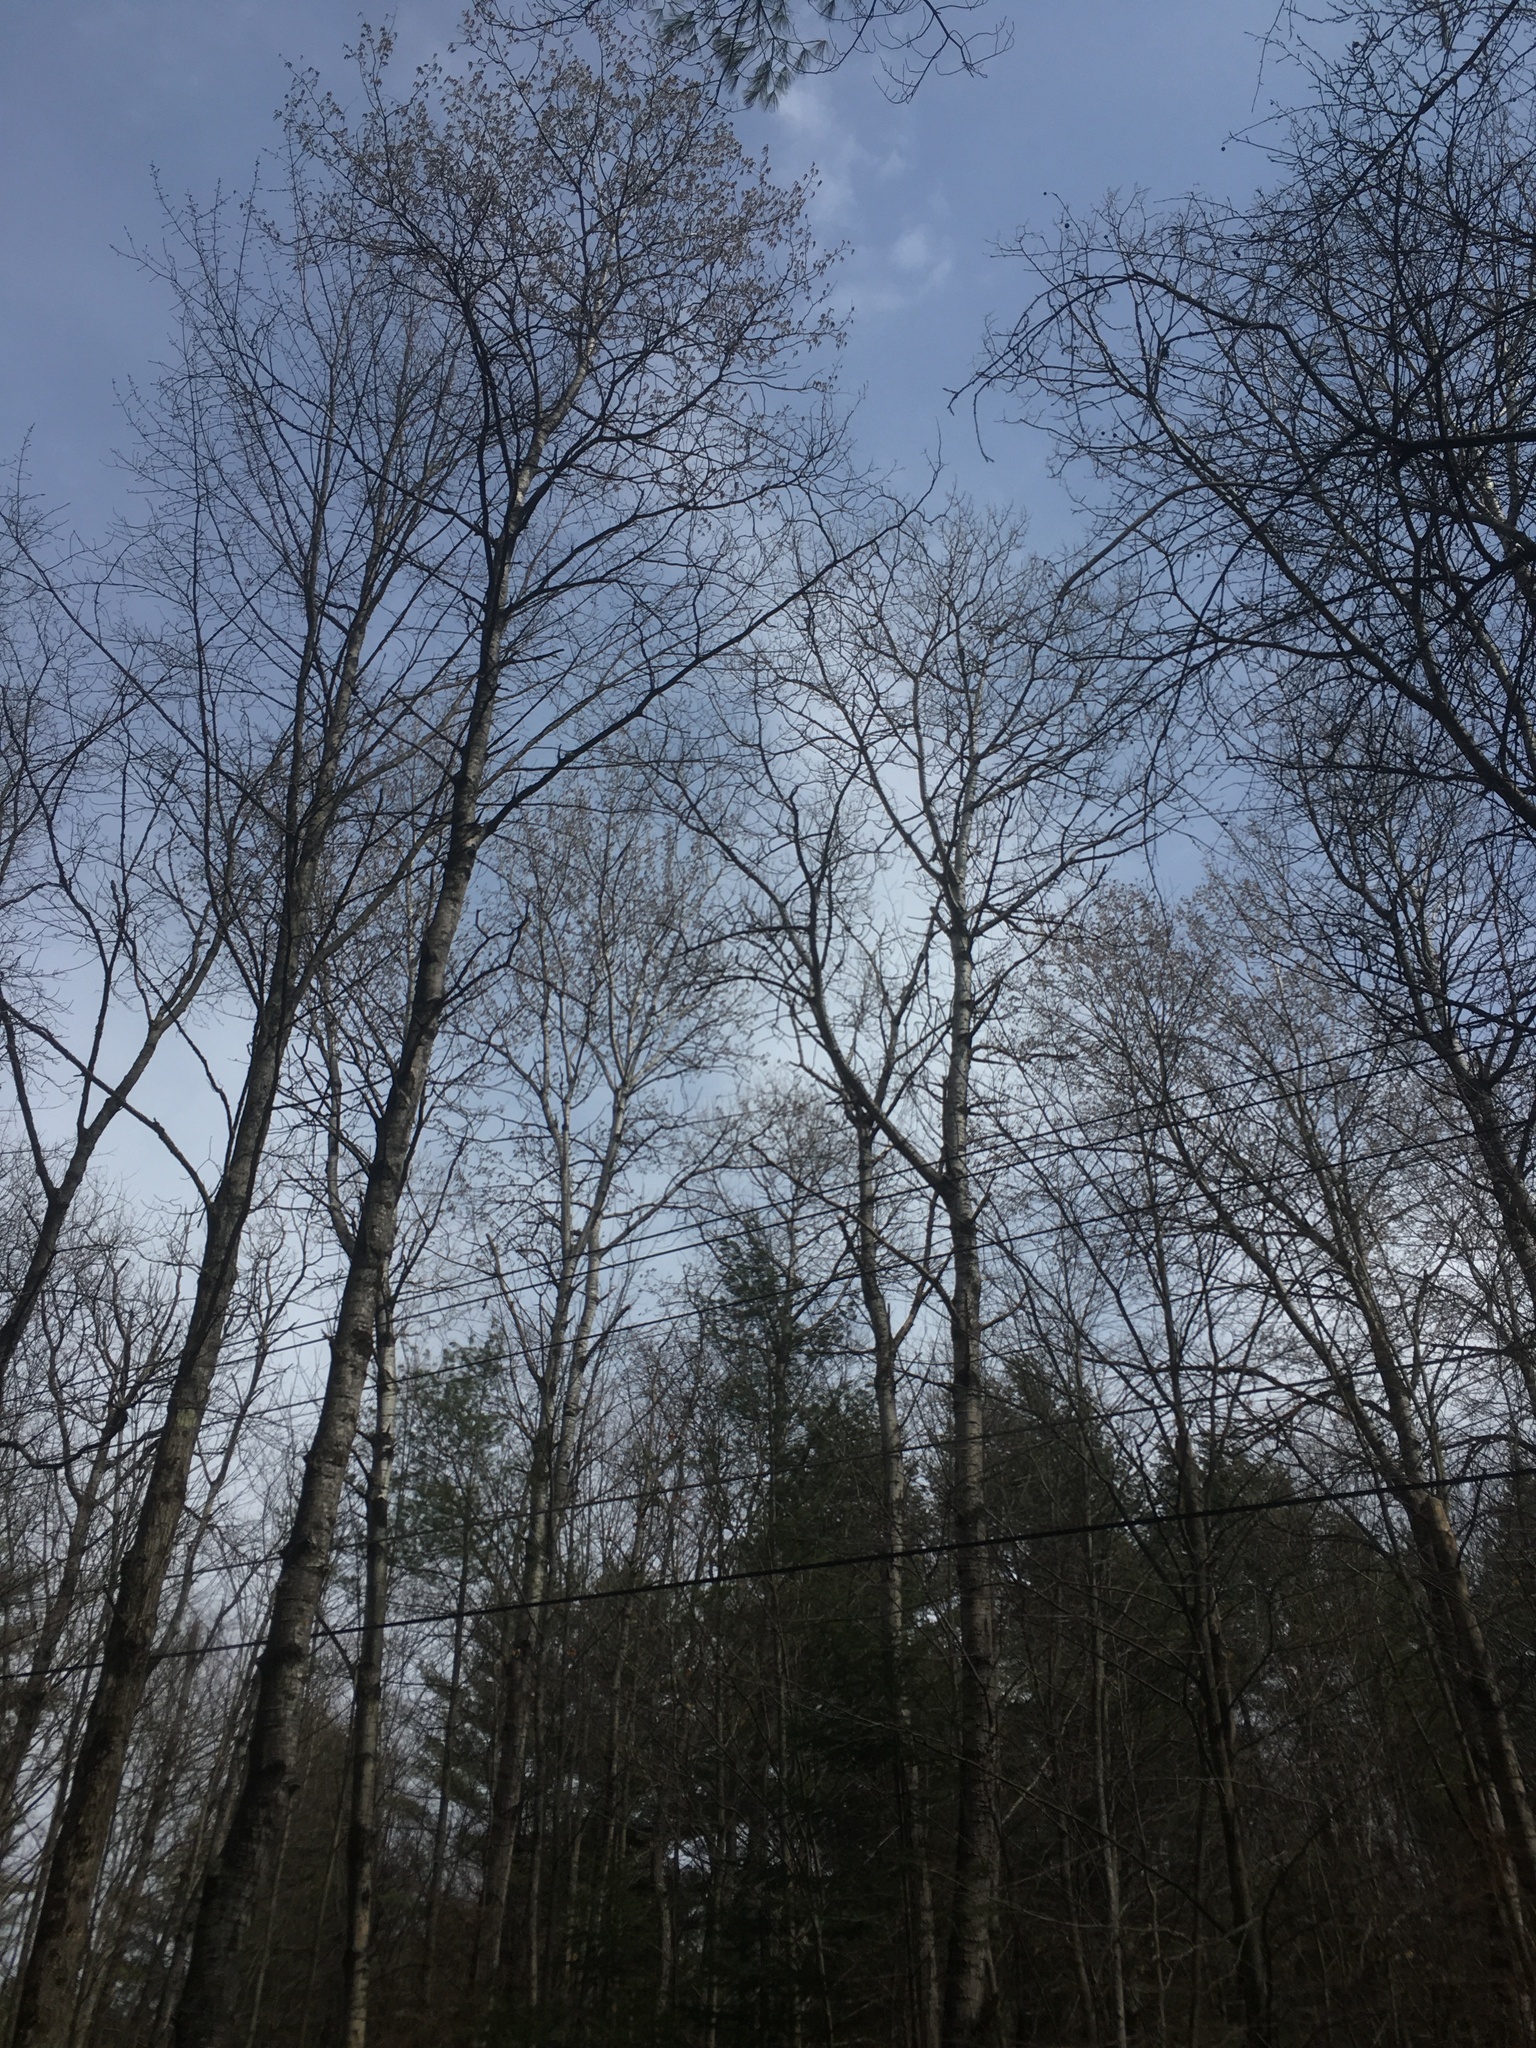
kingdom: Plantae
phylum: Tracheophyta
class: Magnoliopsida
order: Malpighiales
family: Salicaceae
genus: Populus
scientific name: Populus tremuloides
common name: Quaking aspen
